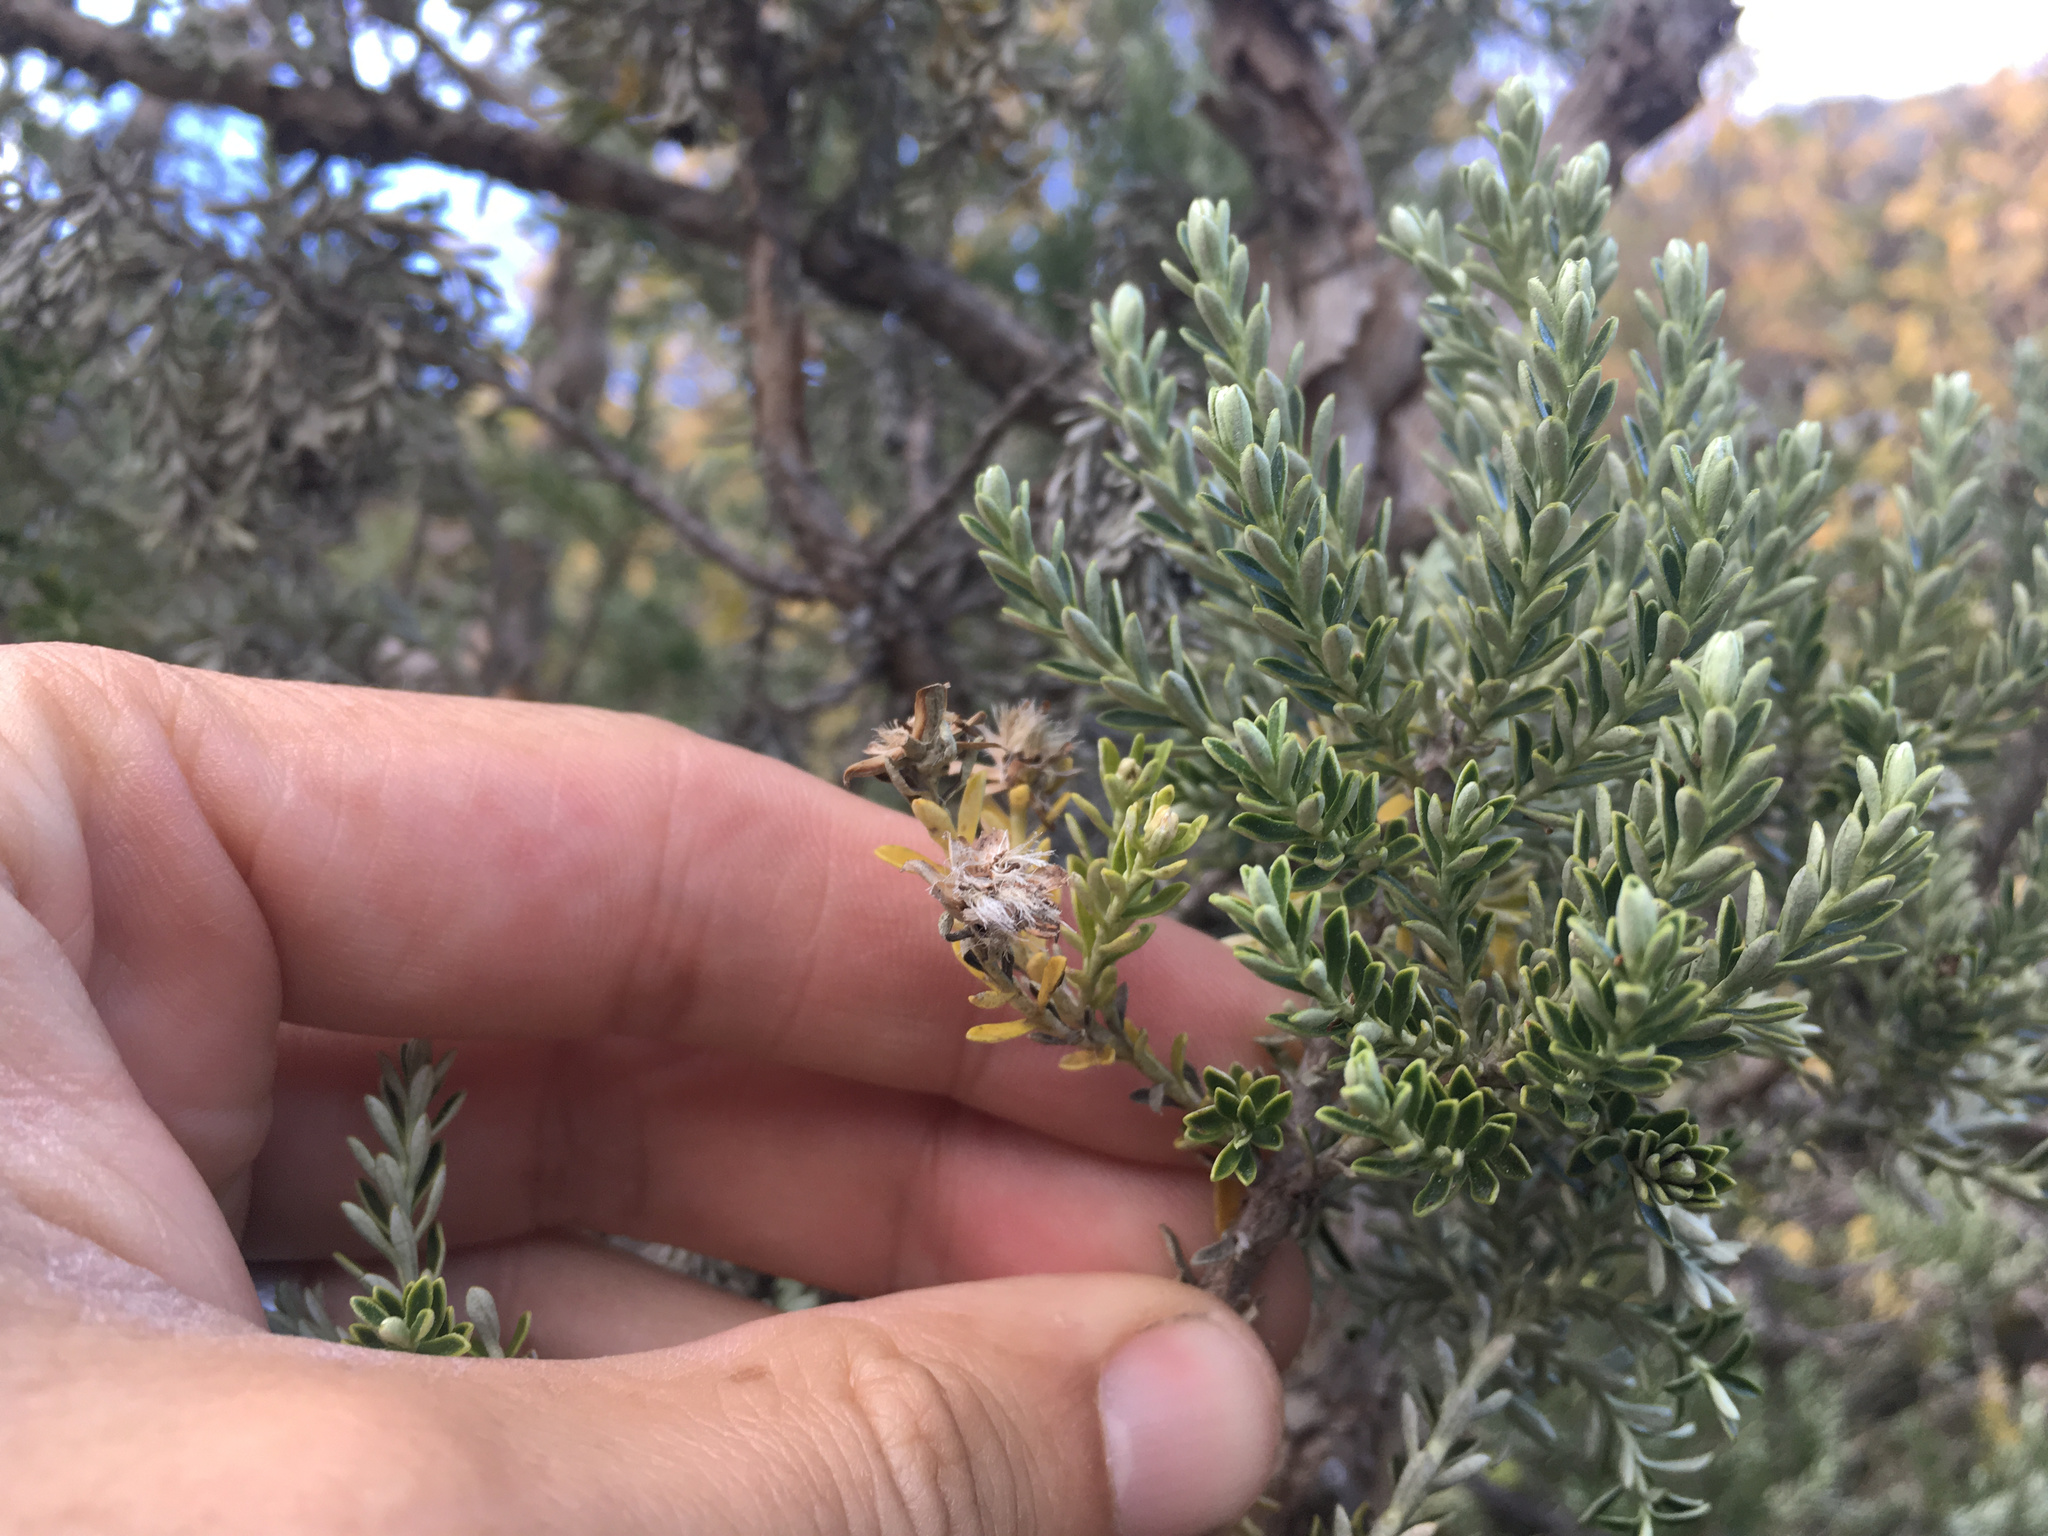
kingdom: Plantae
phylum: Tracheophyta
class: Magnoliopsida
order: Asterales
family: Asteraceae
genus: Brachyglottis
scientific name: Brachyglottis cassinioides
